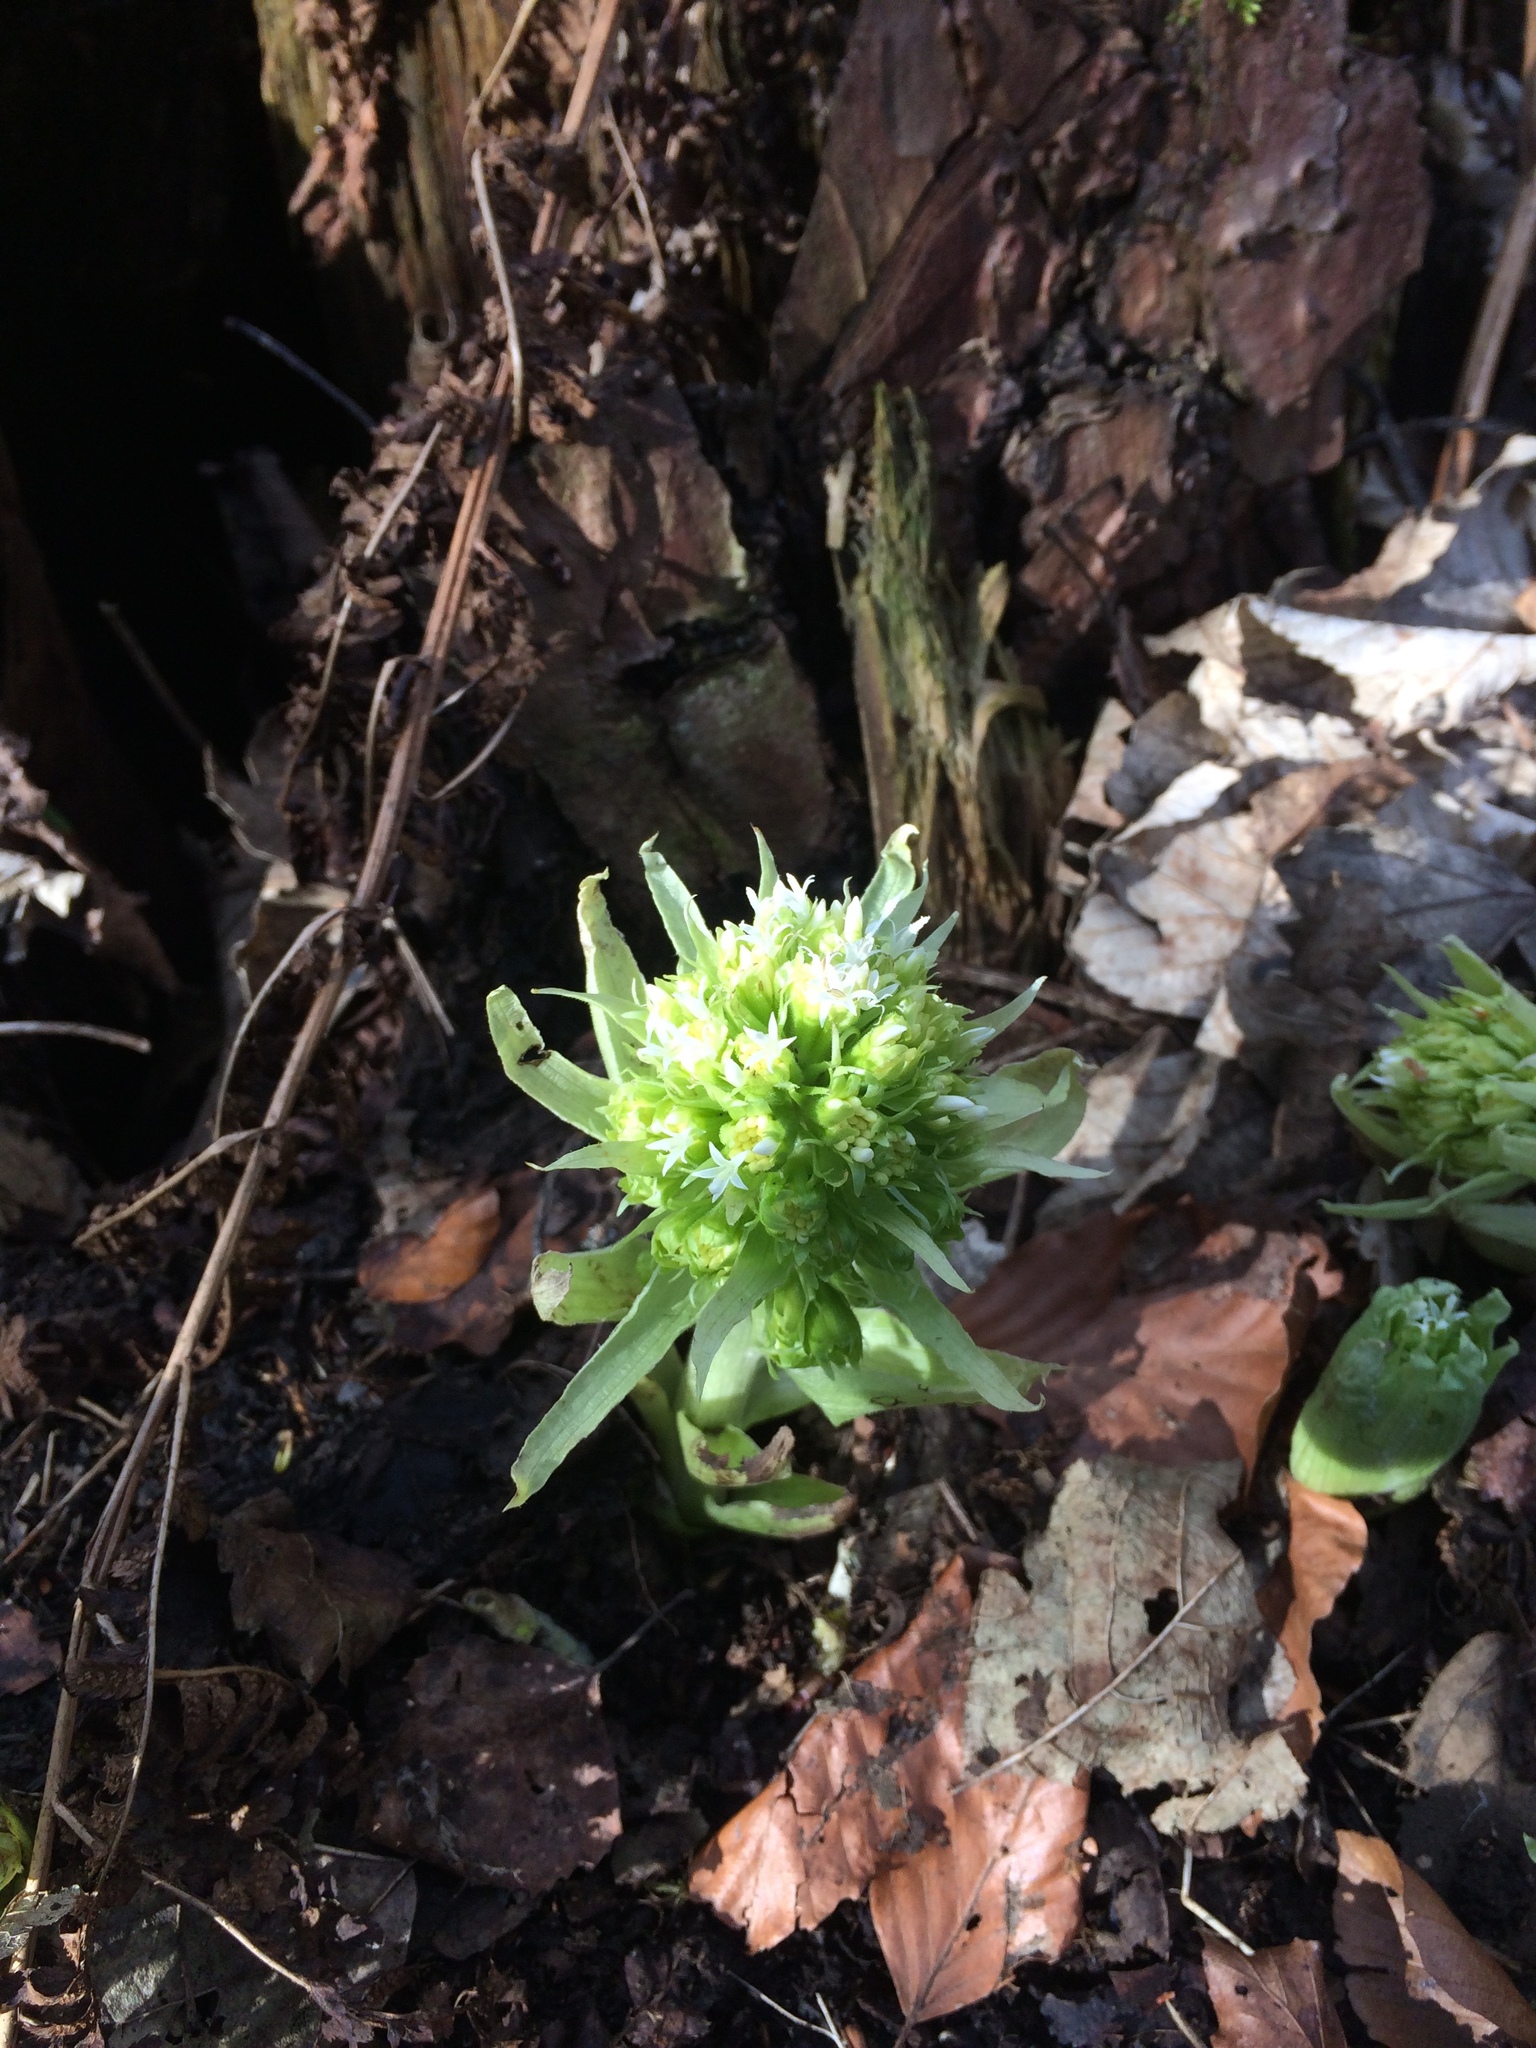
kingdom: Plantae
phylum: Tracheophyta
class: Magnoliopsida
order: Asterales
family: Asteraceae
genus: Petasites
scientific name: Petasites albus
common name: White butterbur
